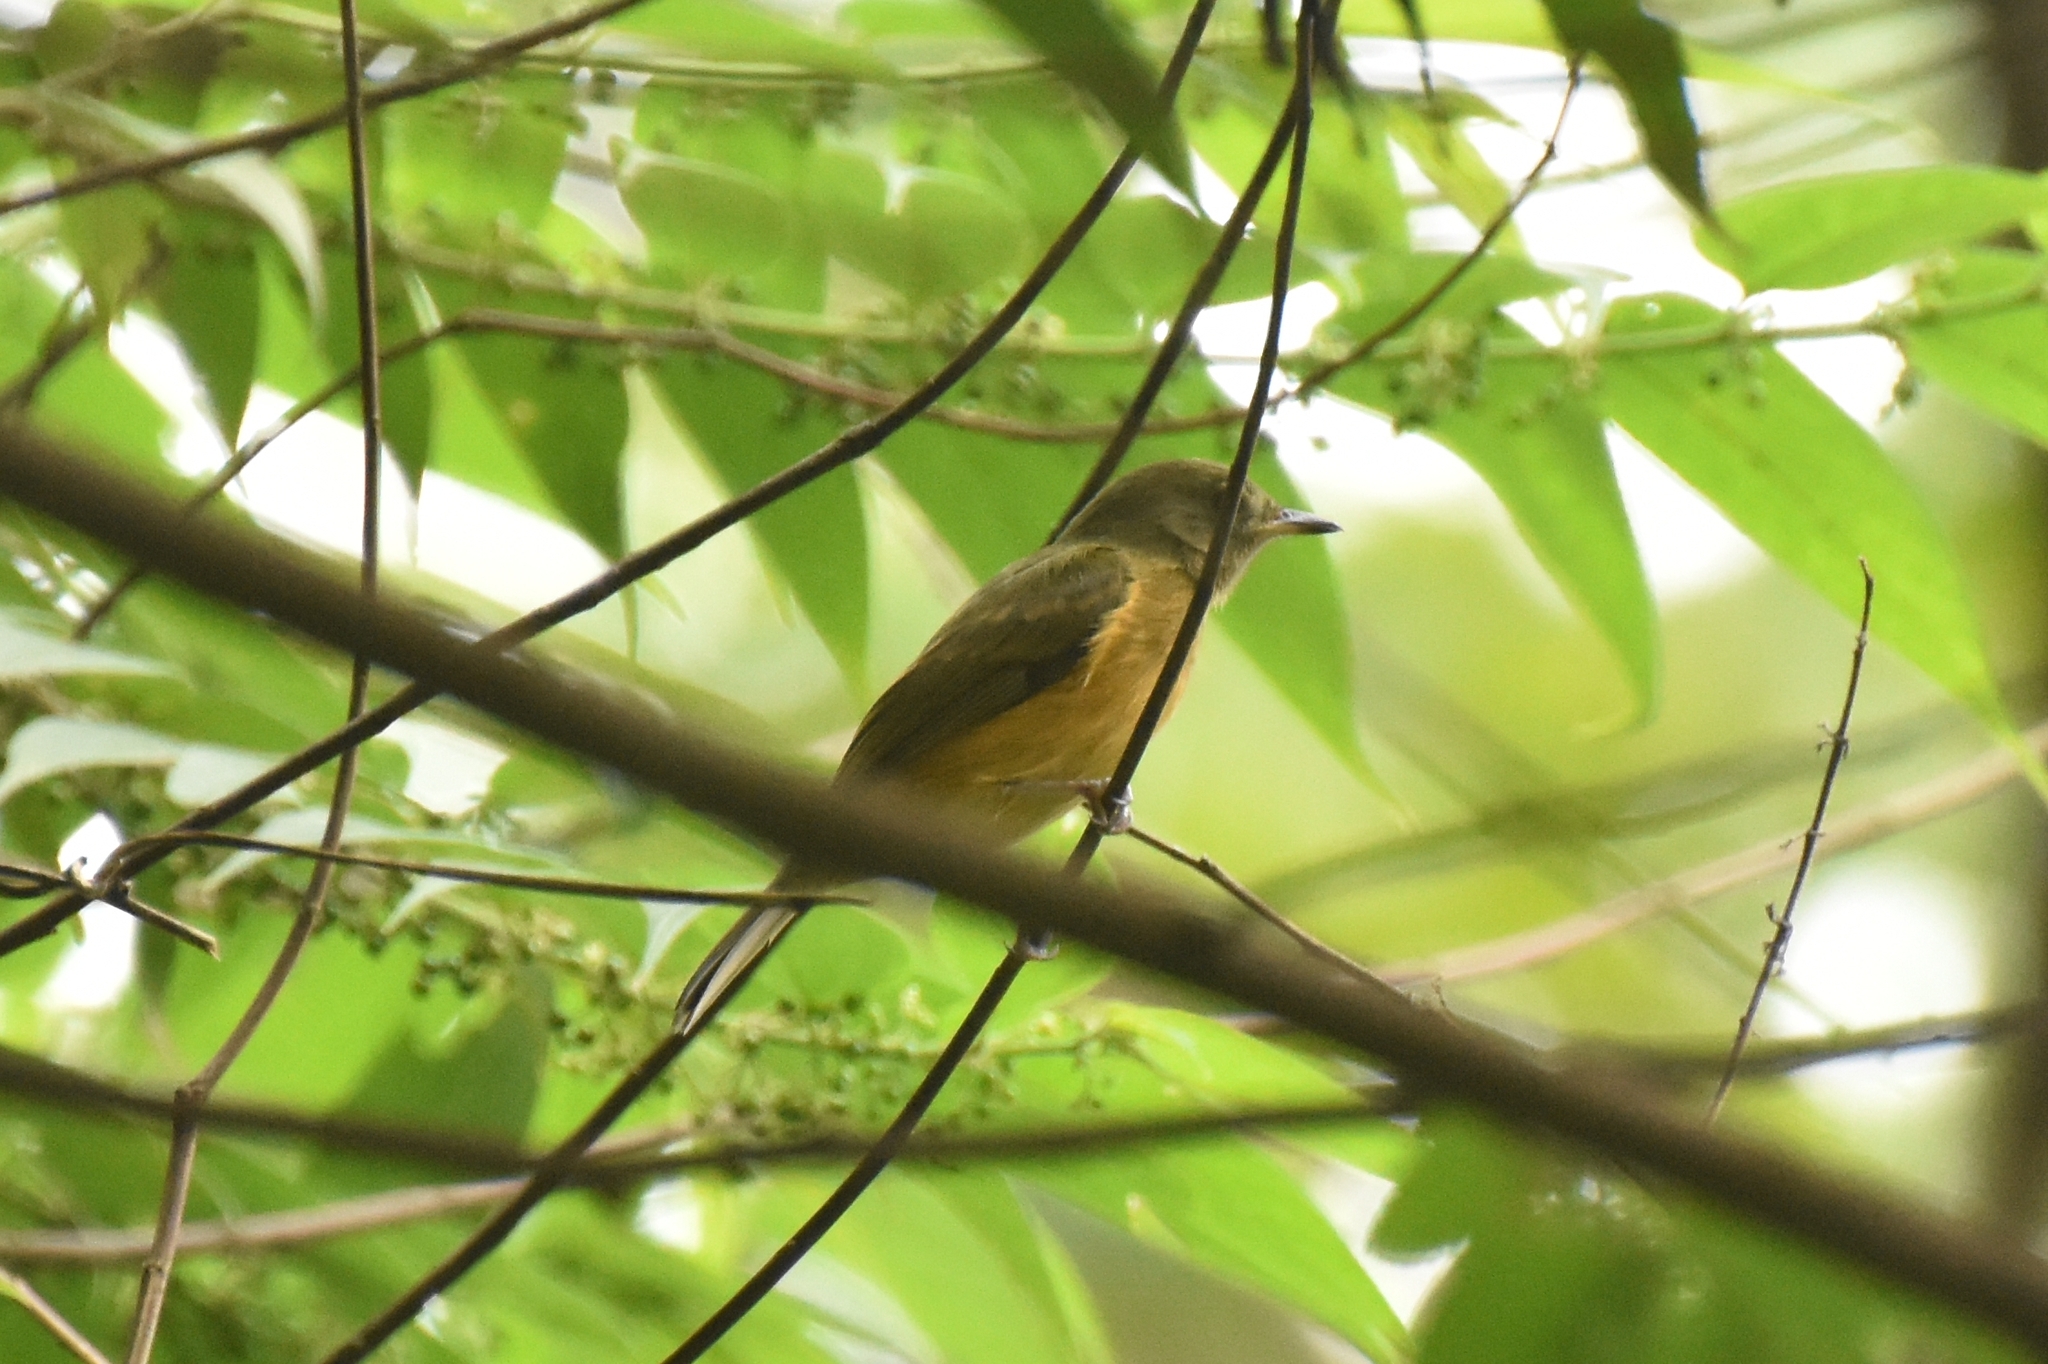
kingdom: Animalia
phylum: Chordata
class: Aves
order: Passeriformes
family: Tyrannidae
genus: Mionectes
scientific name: Mionectes oleagineus
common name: Ochre-bellied flycatcher
